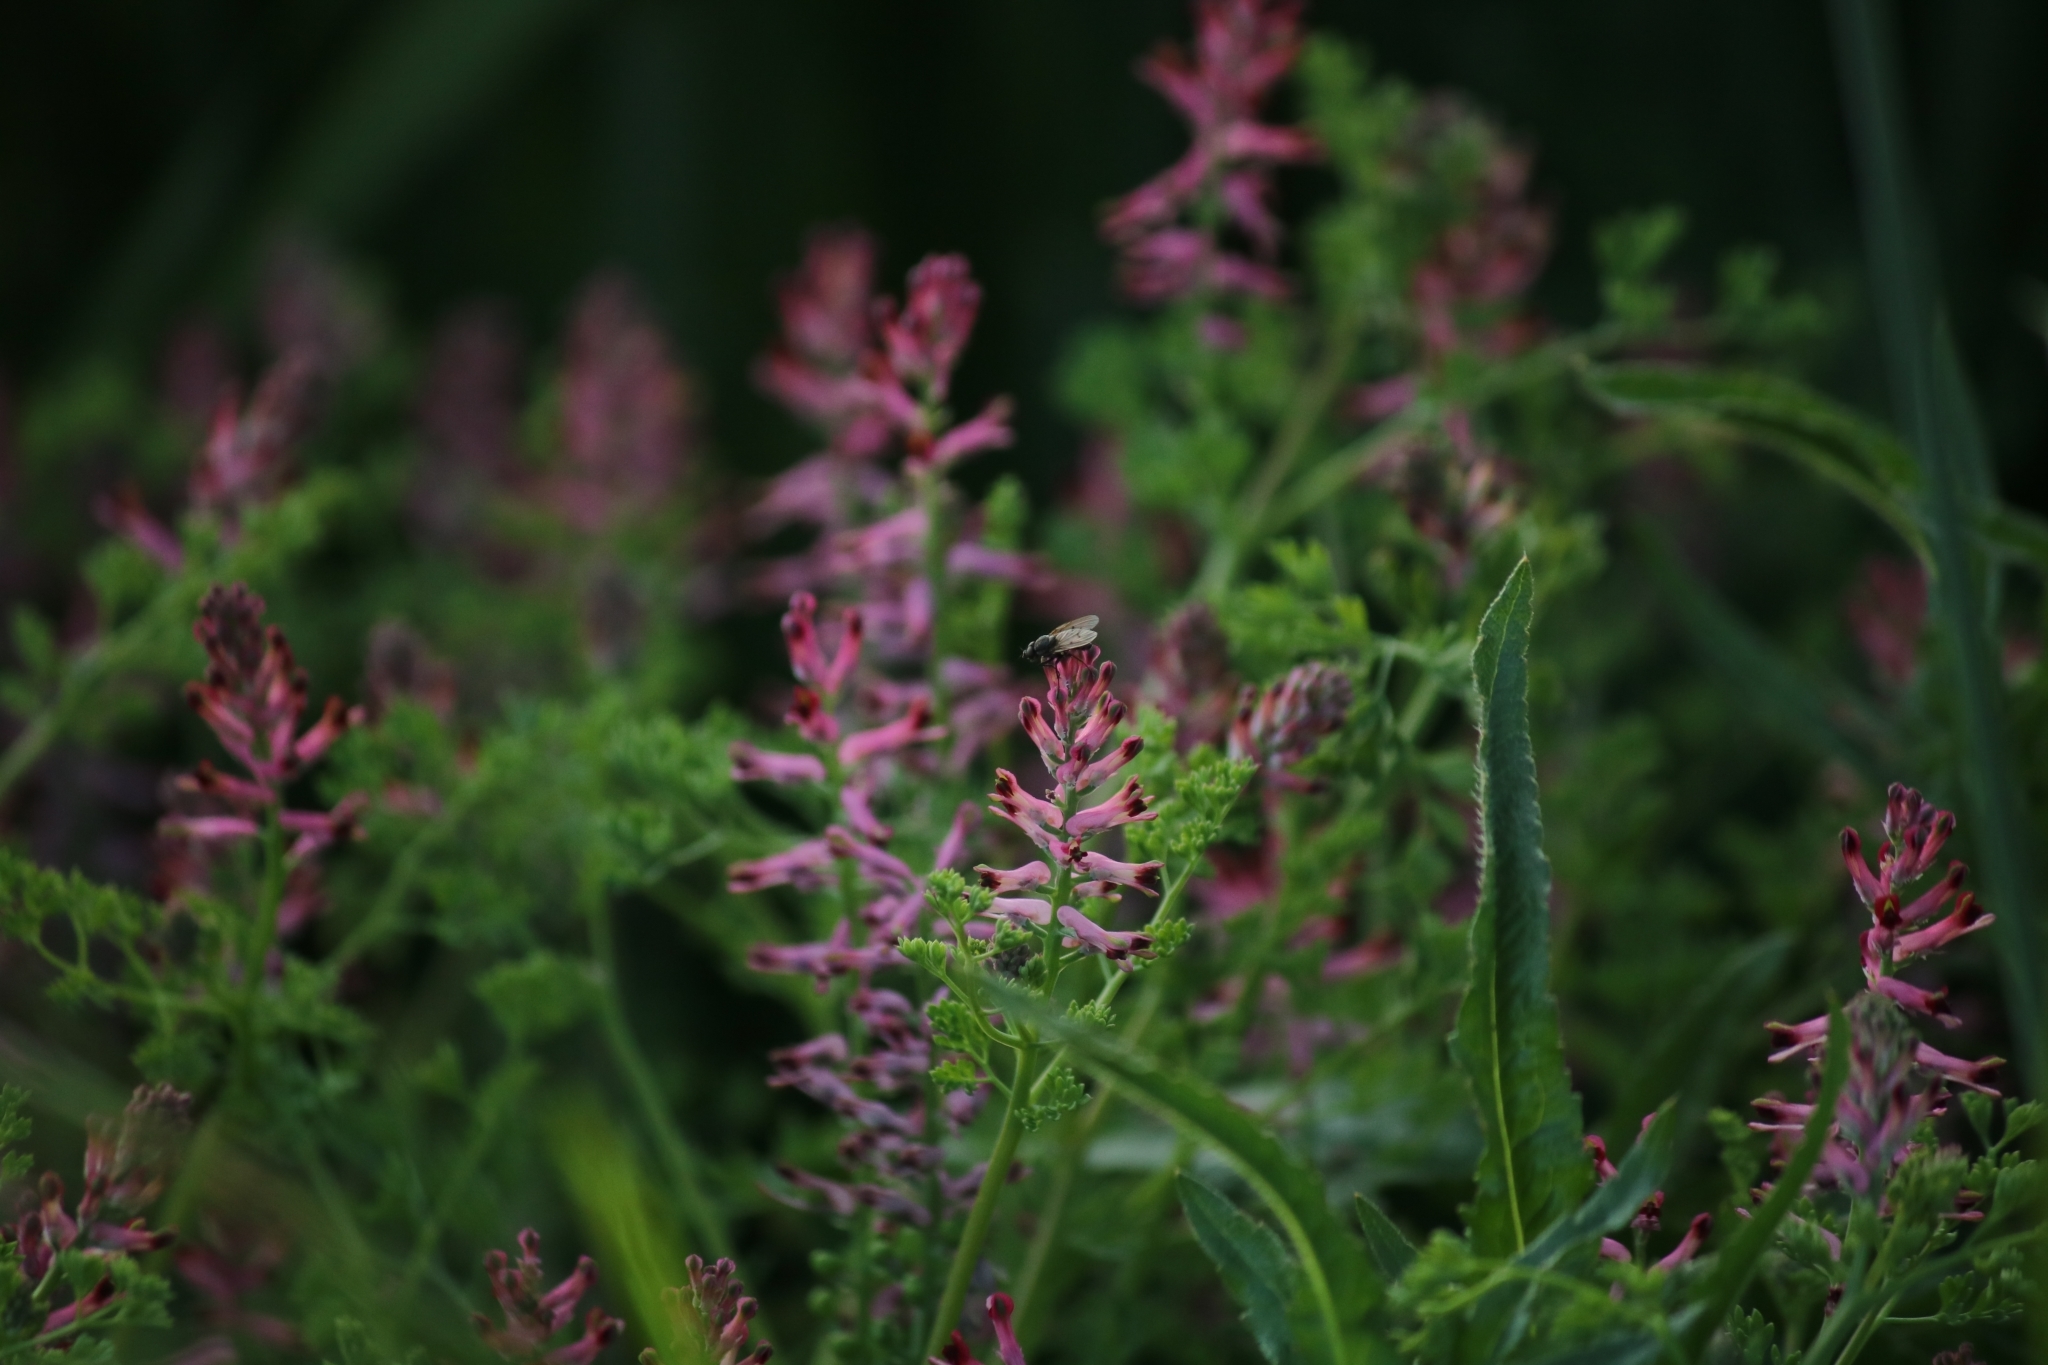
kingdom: Plantae
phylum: Tracheophyta
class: Magnoliopsida
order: Ranunculales
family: Papaveraceae
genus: Fumaria
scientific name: Fumaria officinalis
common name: Common fumitory
